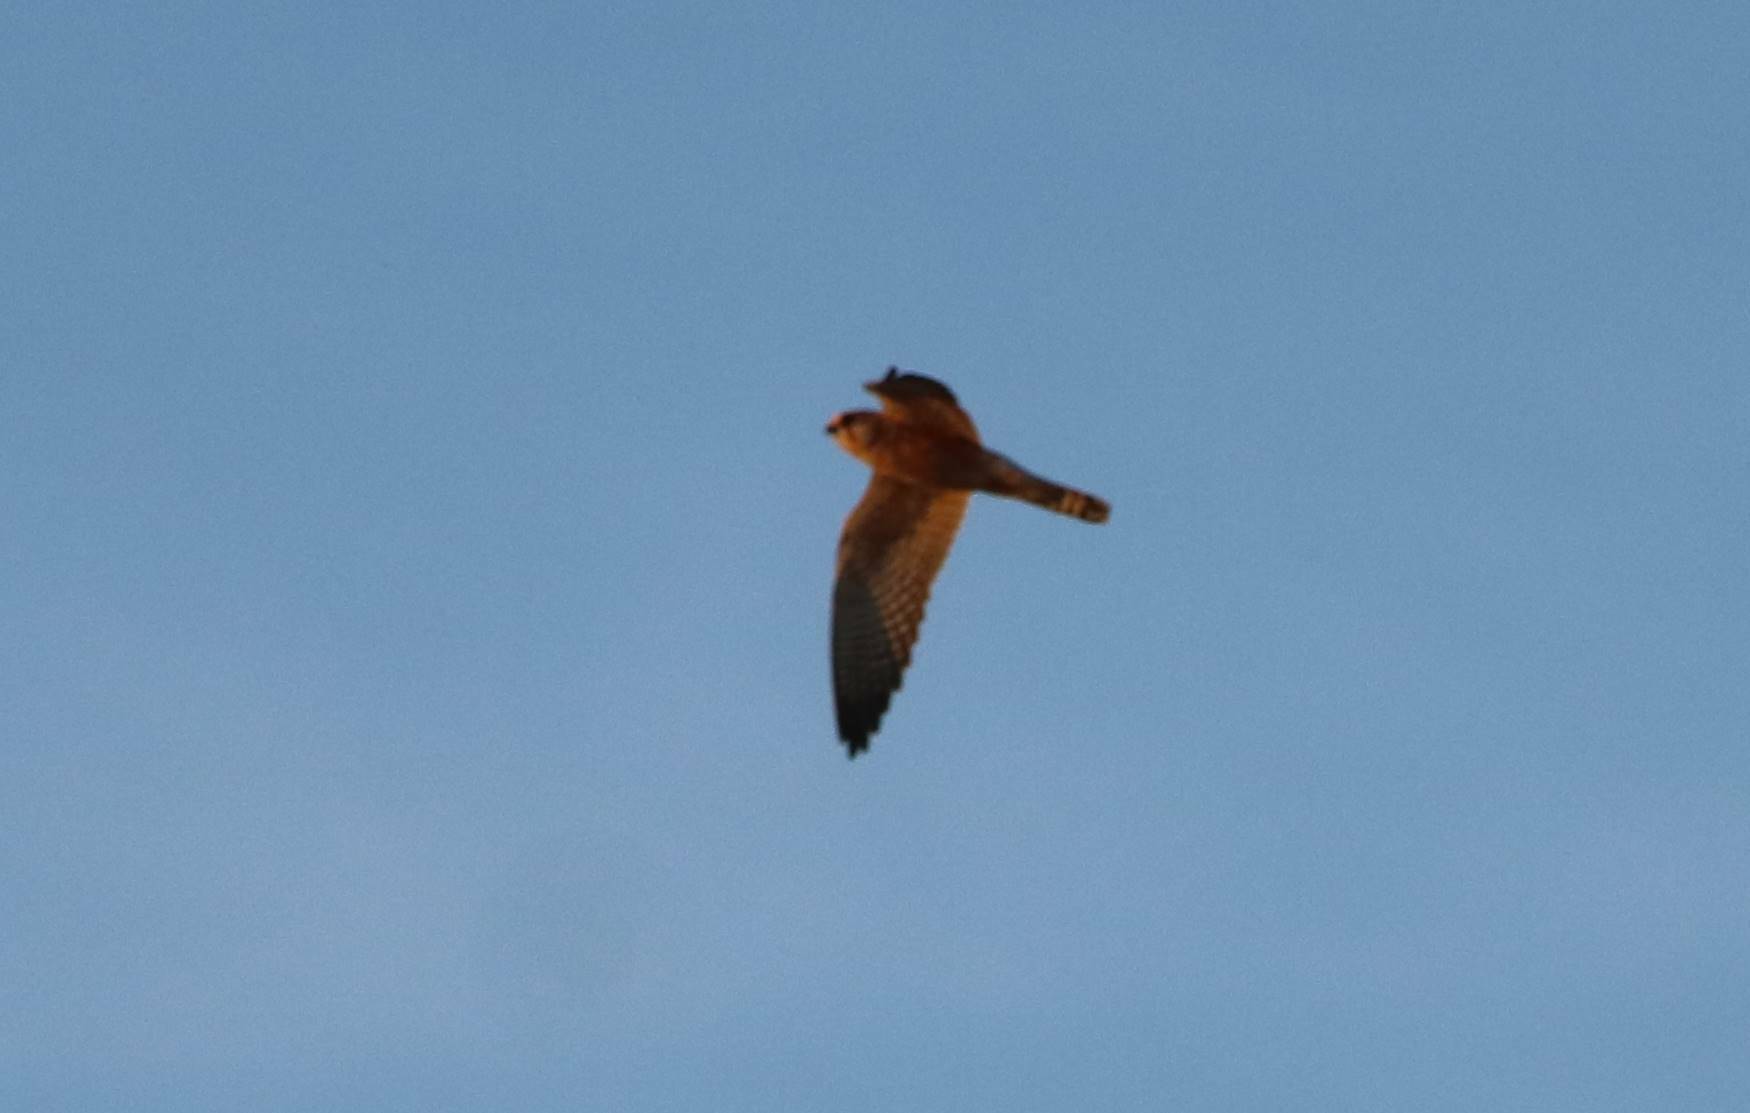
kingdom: Animalia
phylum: Chordata
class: Aves
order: Falconiformes
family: Falconidae
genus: Falco
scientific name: Falco vespertinus
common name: Red-footed falcon
